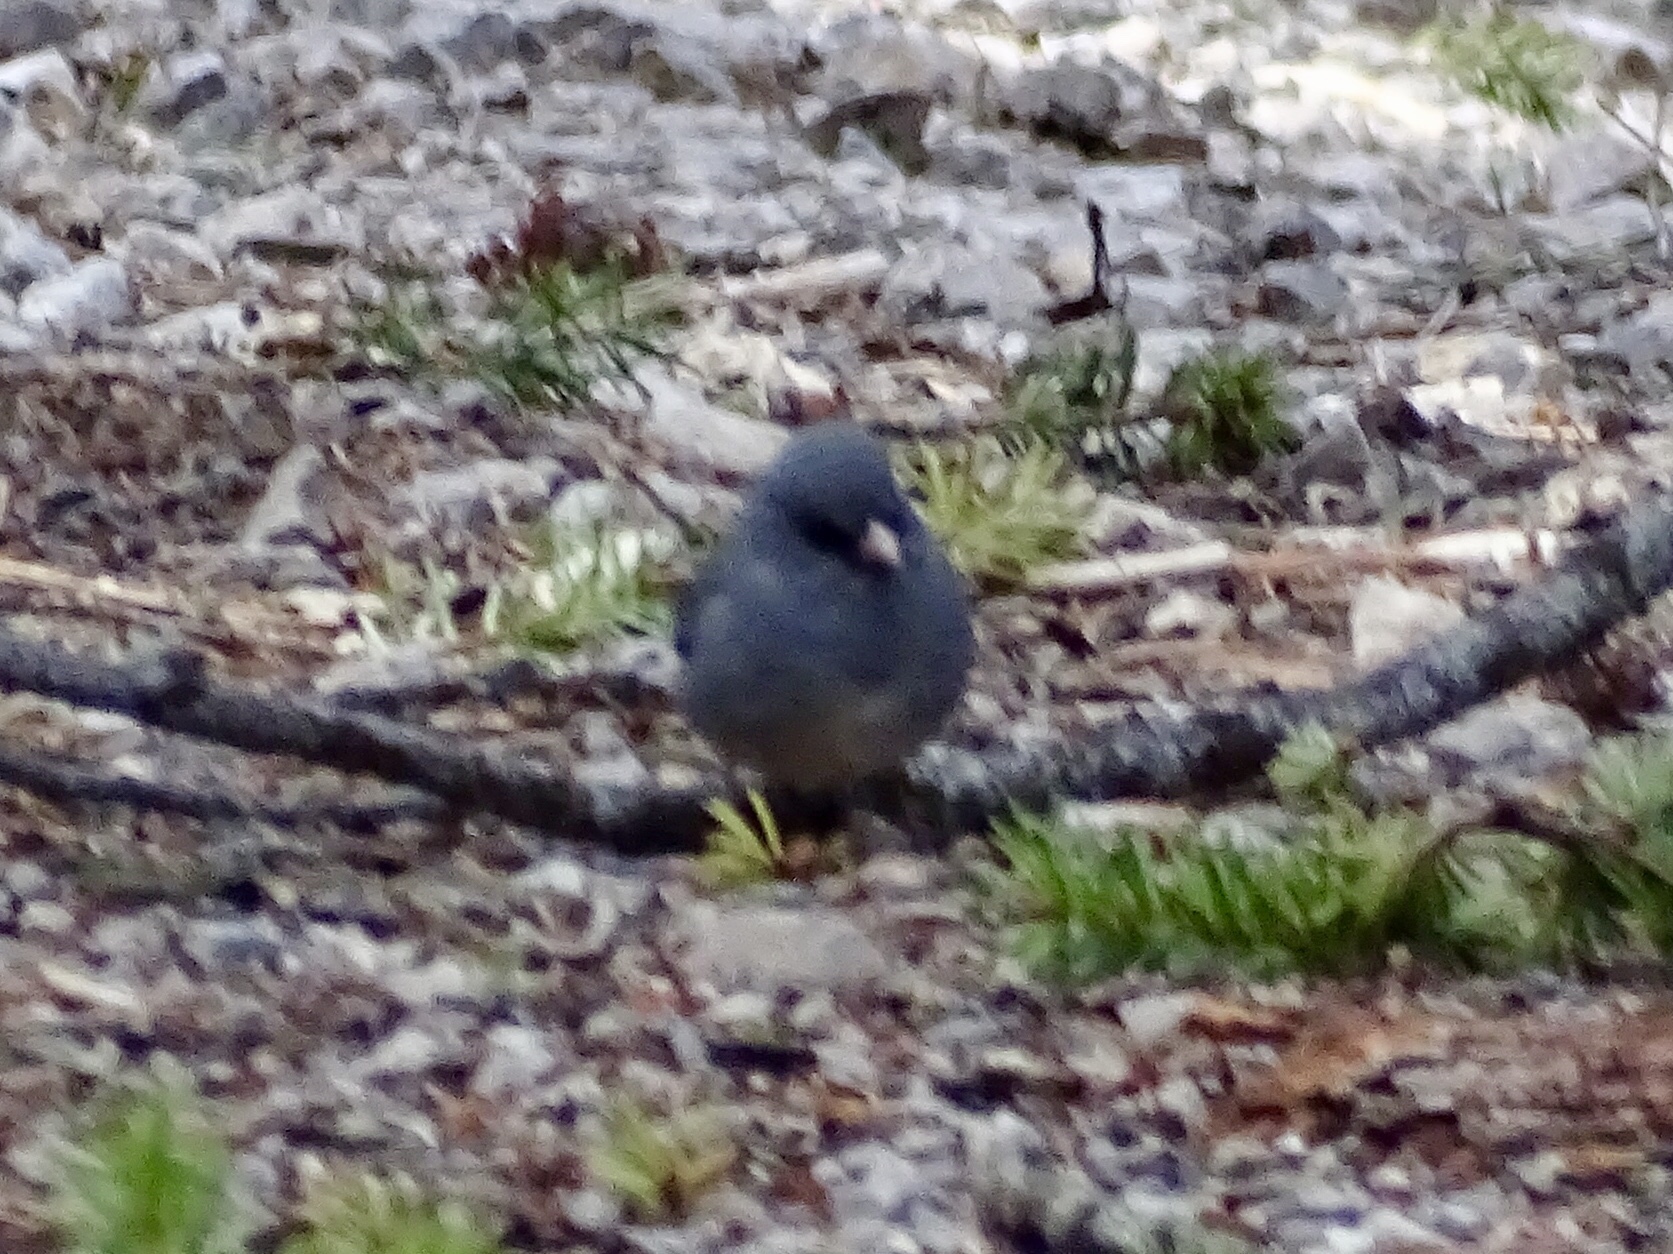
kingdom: Animalia
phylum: Chordata
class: Aves
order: Passeriformes
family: Passerellidae
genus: Junco
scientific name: Junco hyemalis
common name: Dark-eyed junco
